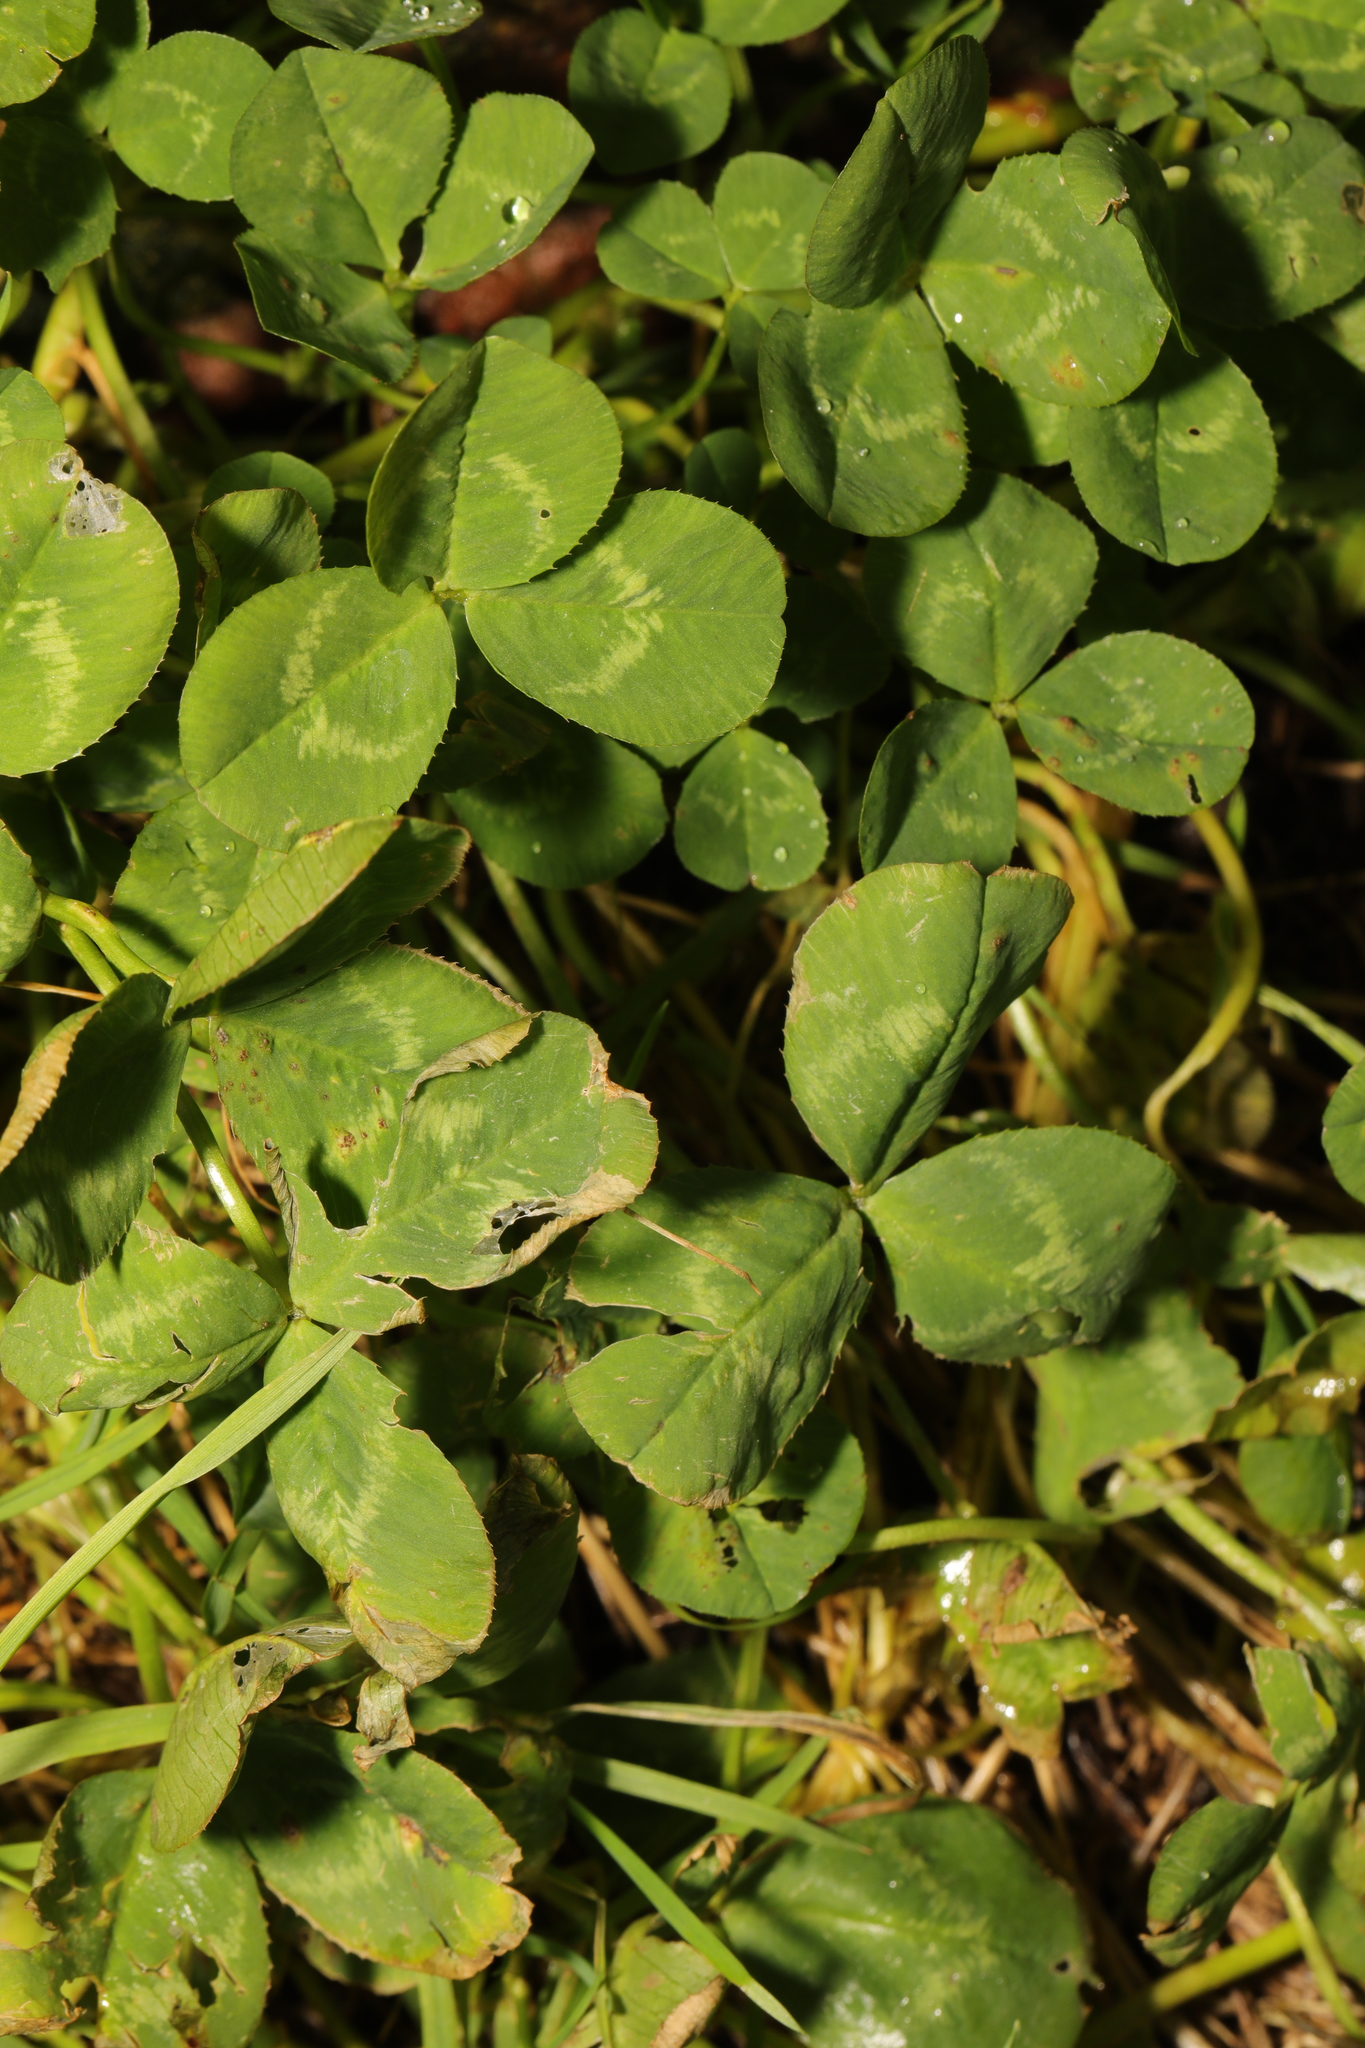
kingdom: Plantae
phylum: Tracheophyta
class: Magnoliopsida
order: Fabales
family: Fabaceae
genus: Trifolium
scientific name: Trifolium repens
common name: White clover
